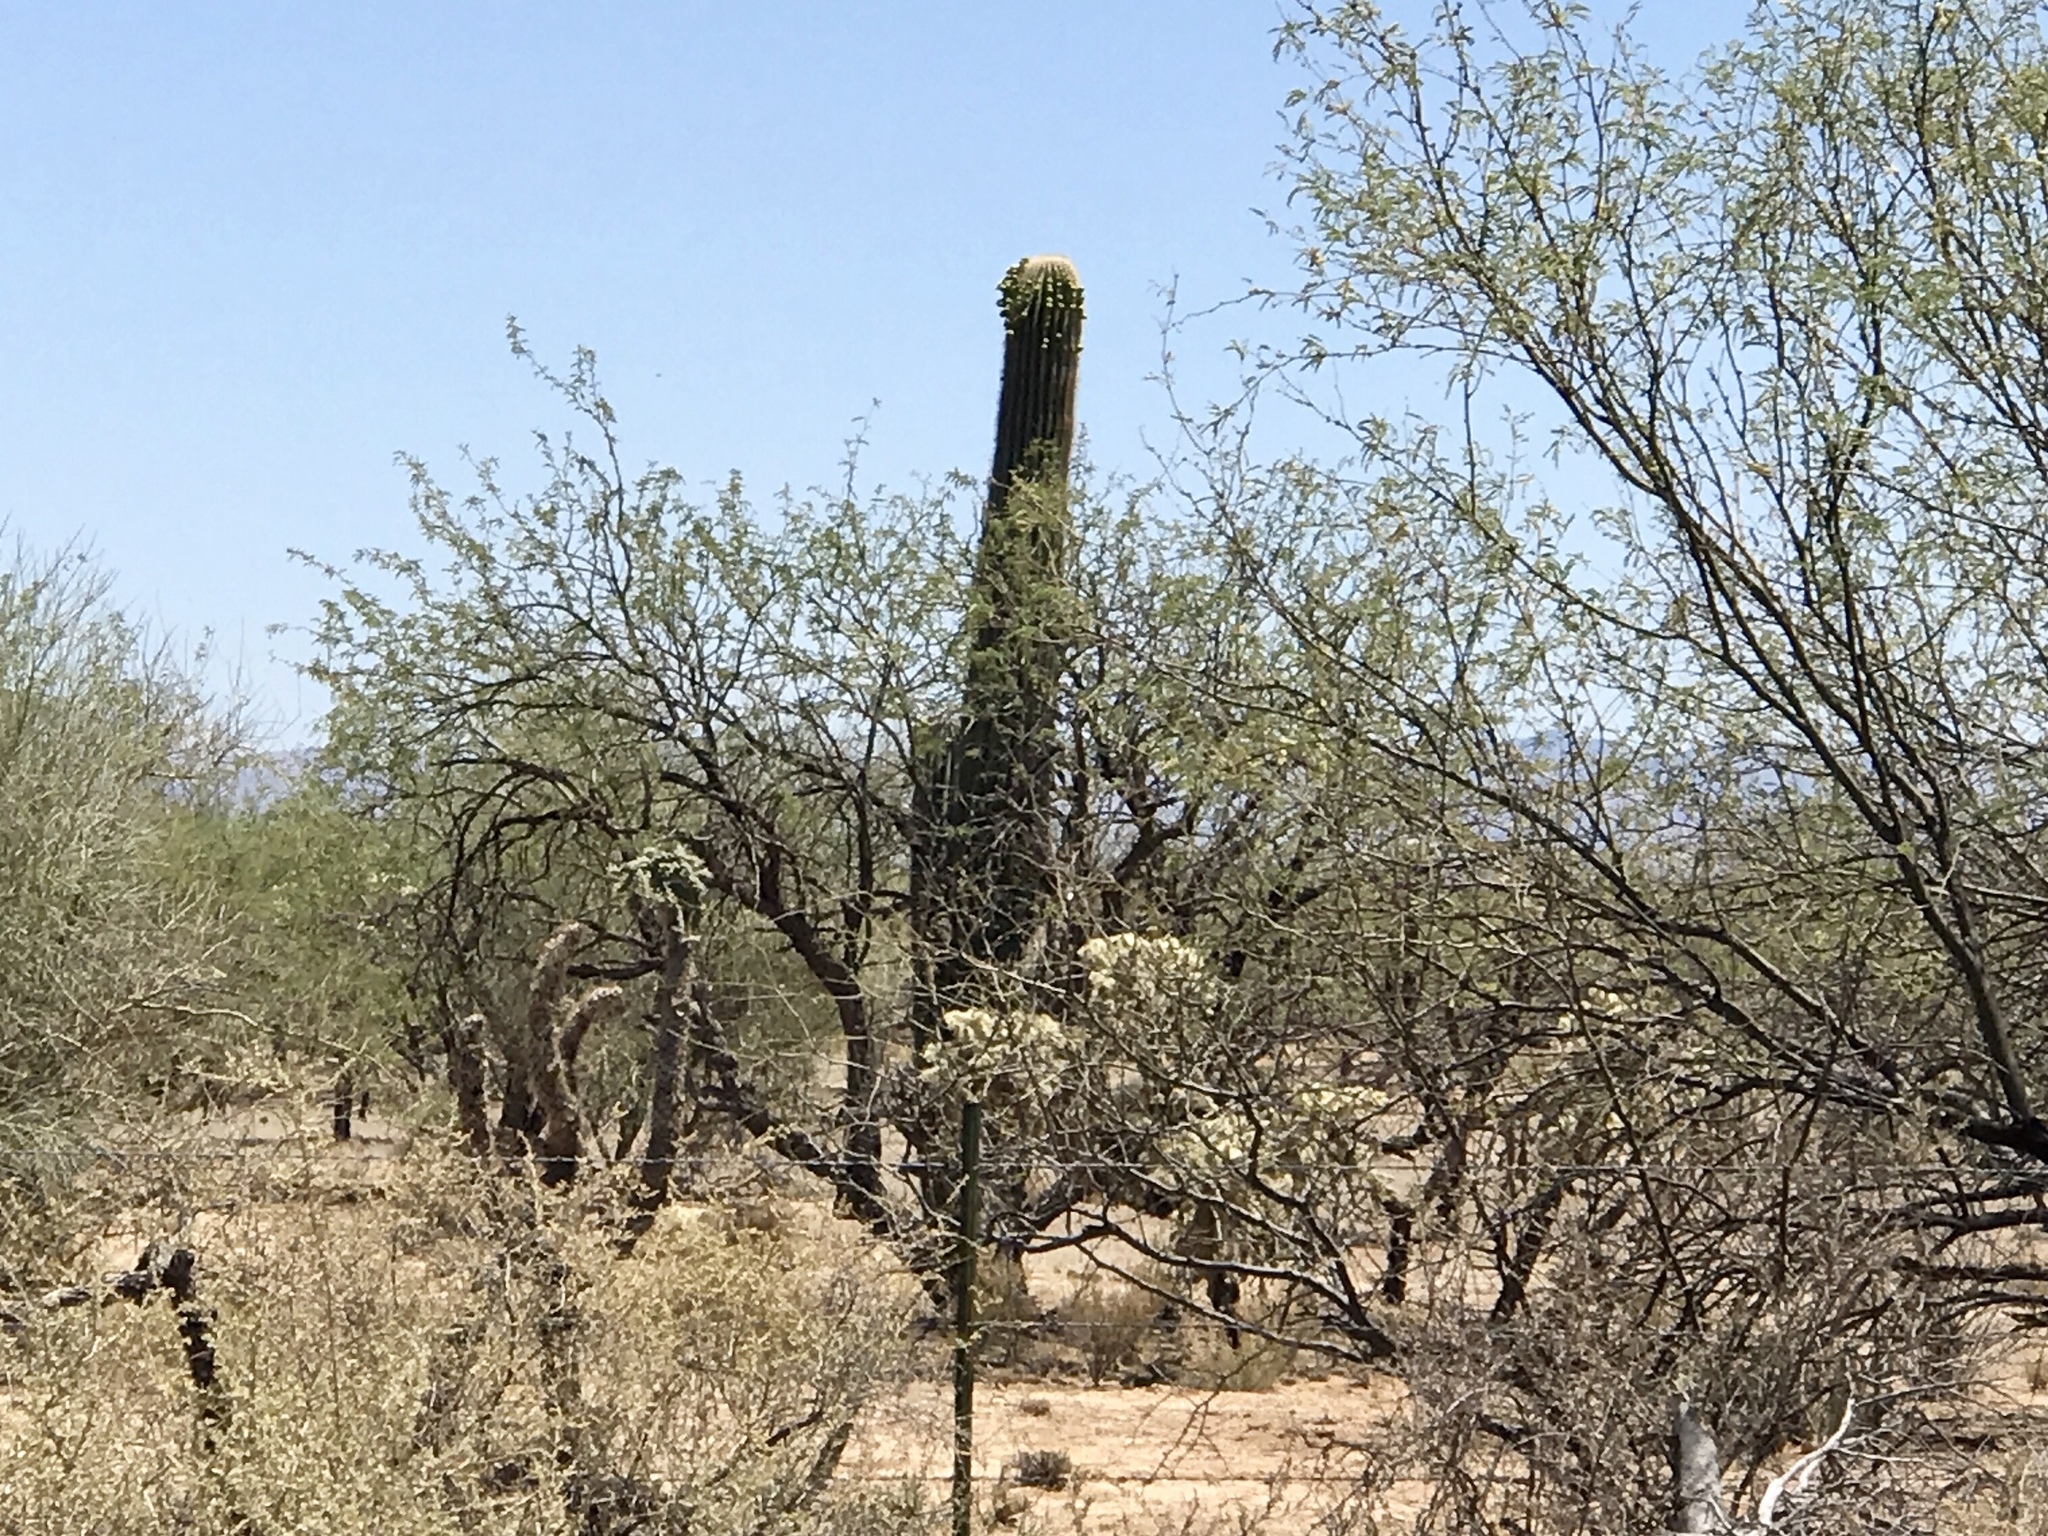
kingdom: Plantae
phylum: Tracheophyta
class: Magnoliopsida
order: Caryophyllales
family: Cactaceae
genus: Carnegiea
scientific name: Carnegiea gigantea
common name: Saguaro
